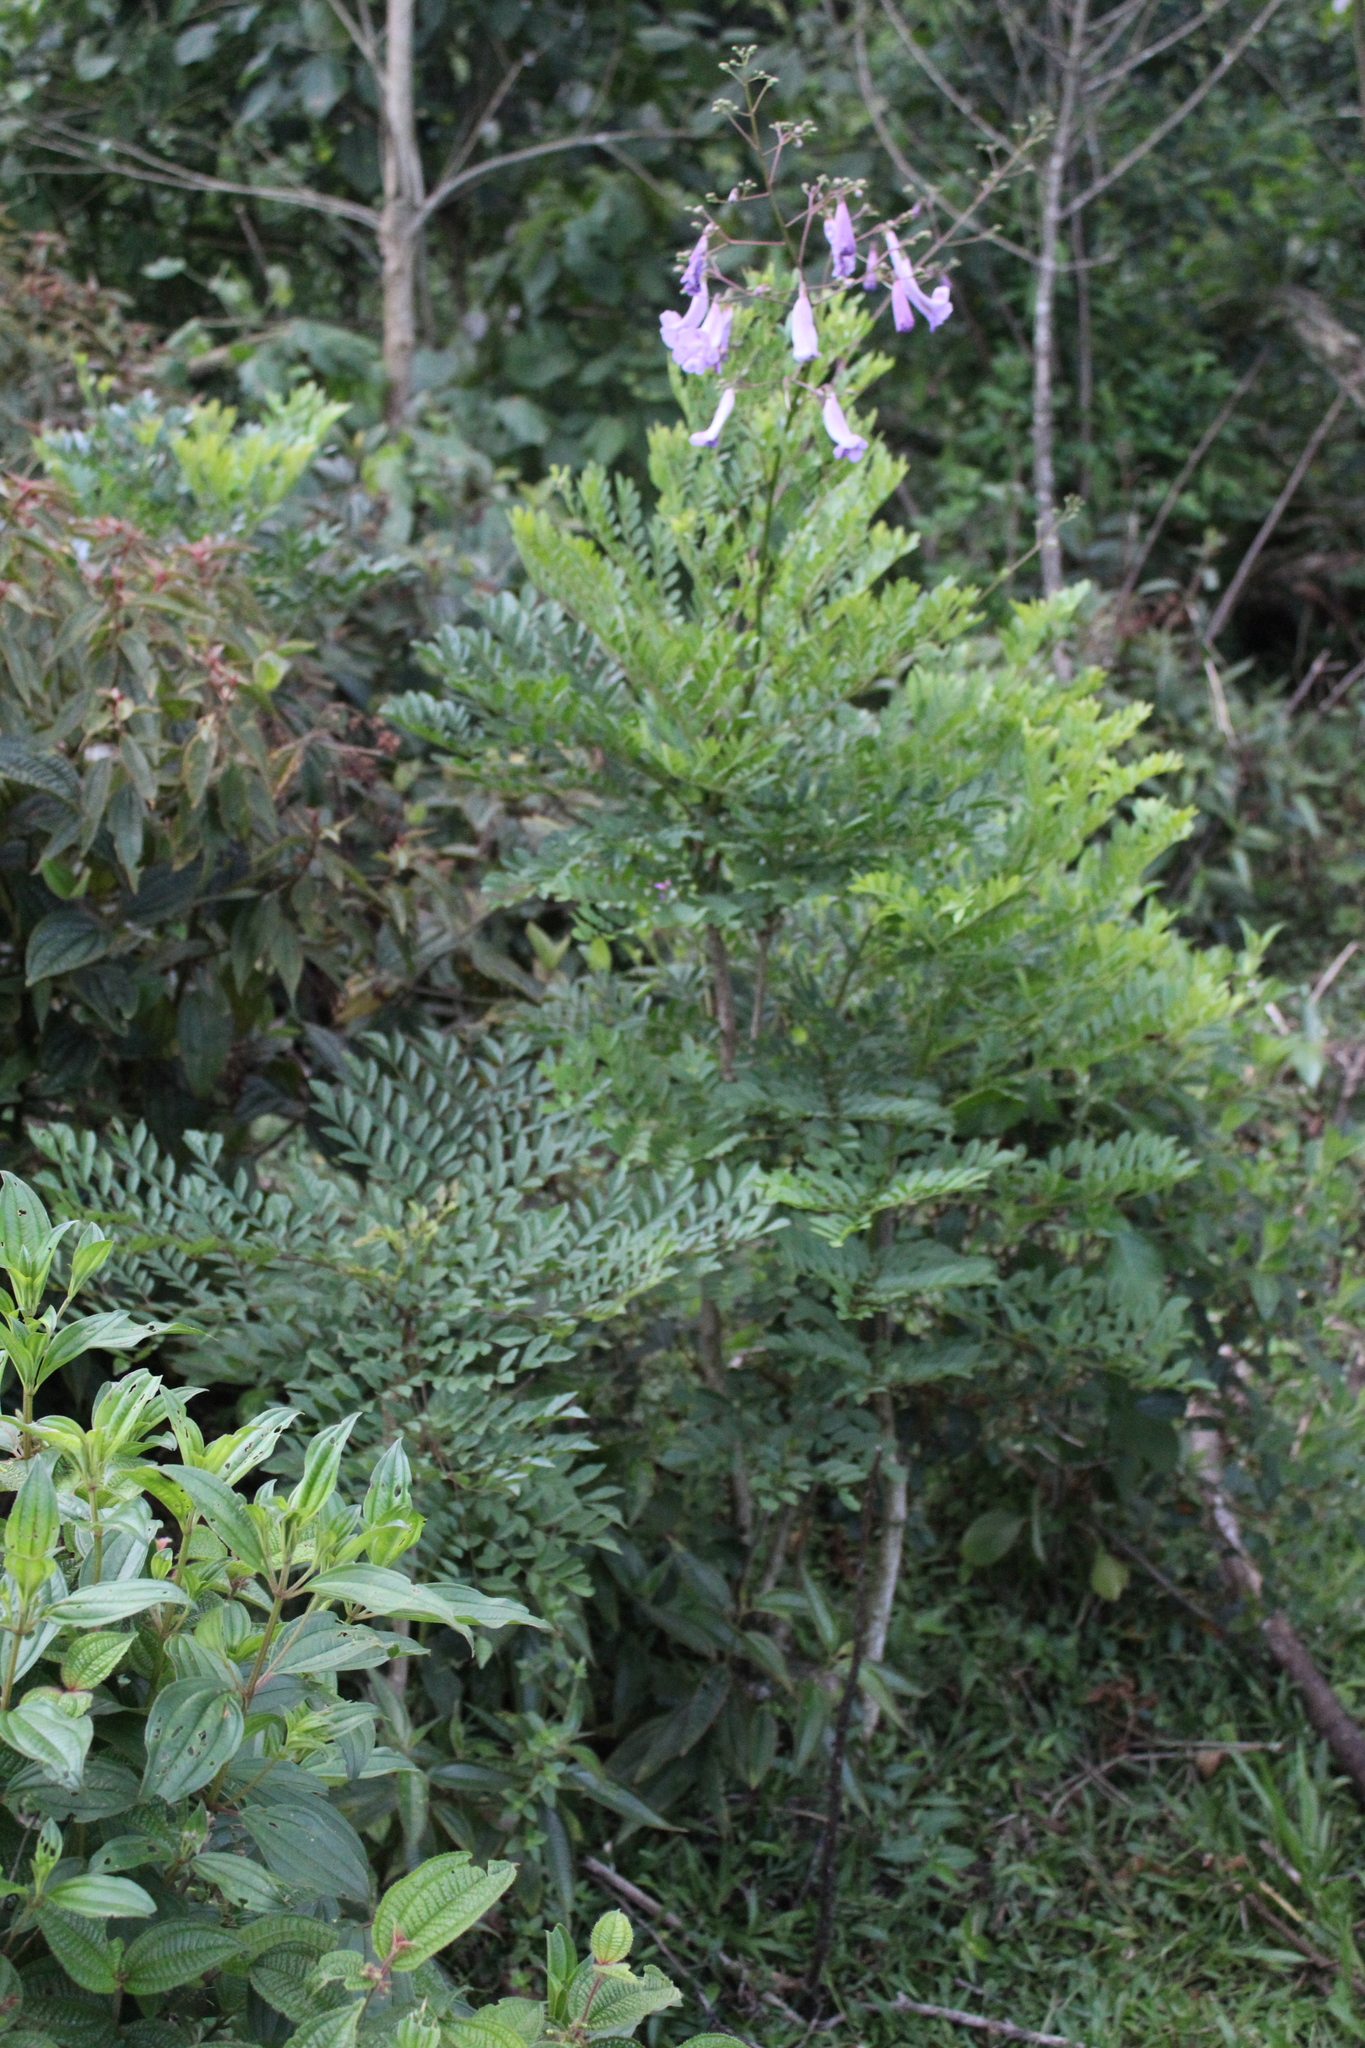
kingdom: Plantae
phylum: Tracheophyta
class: Magnoliopsida
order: Lamiales
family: Bignoniaceae
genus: Jacaranda
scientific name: Jacaranda puberula
